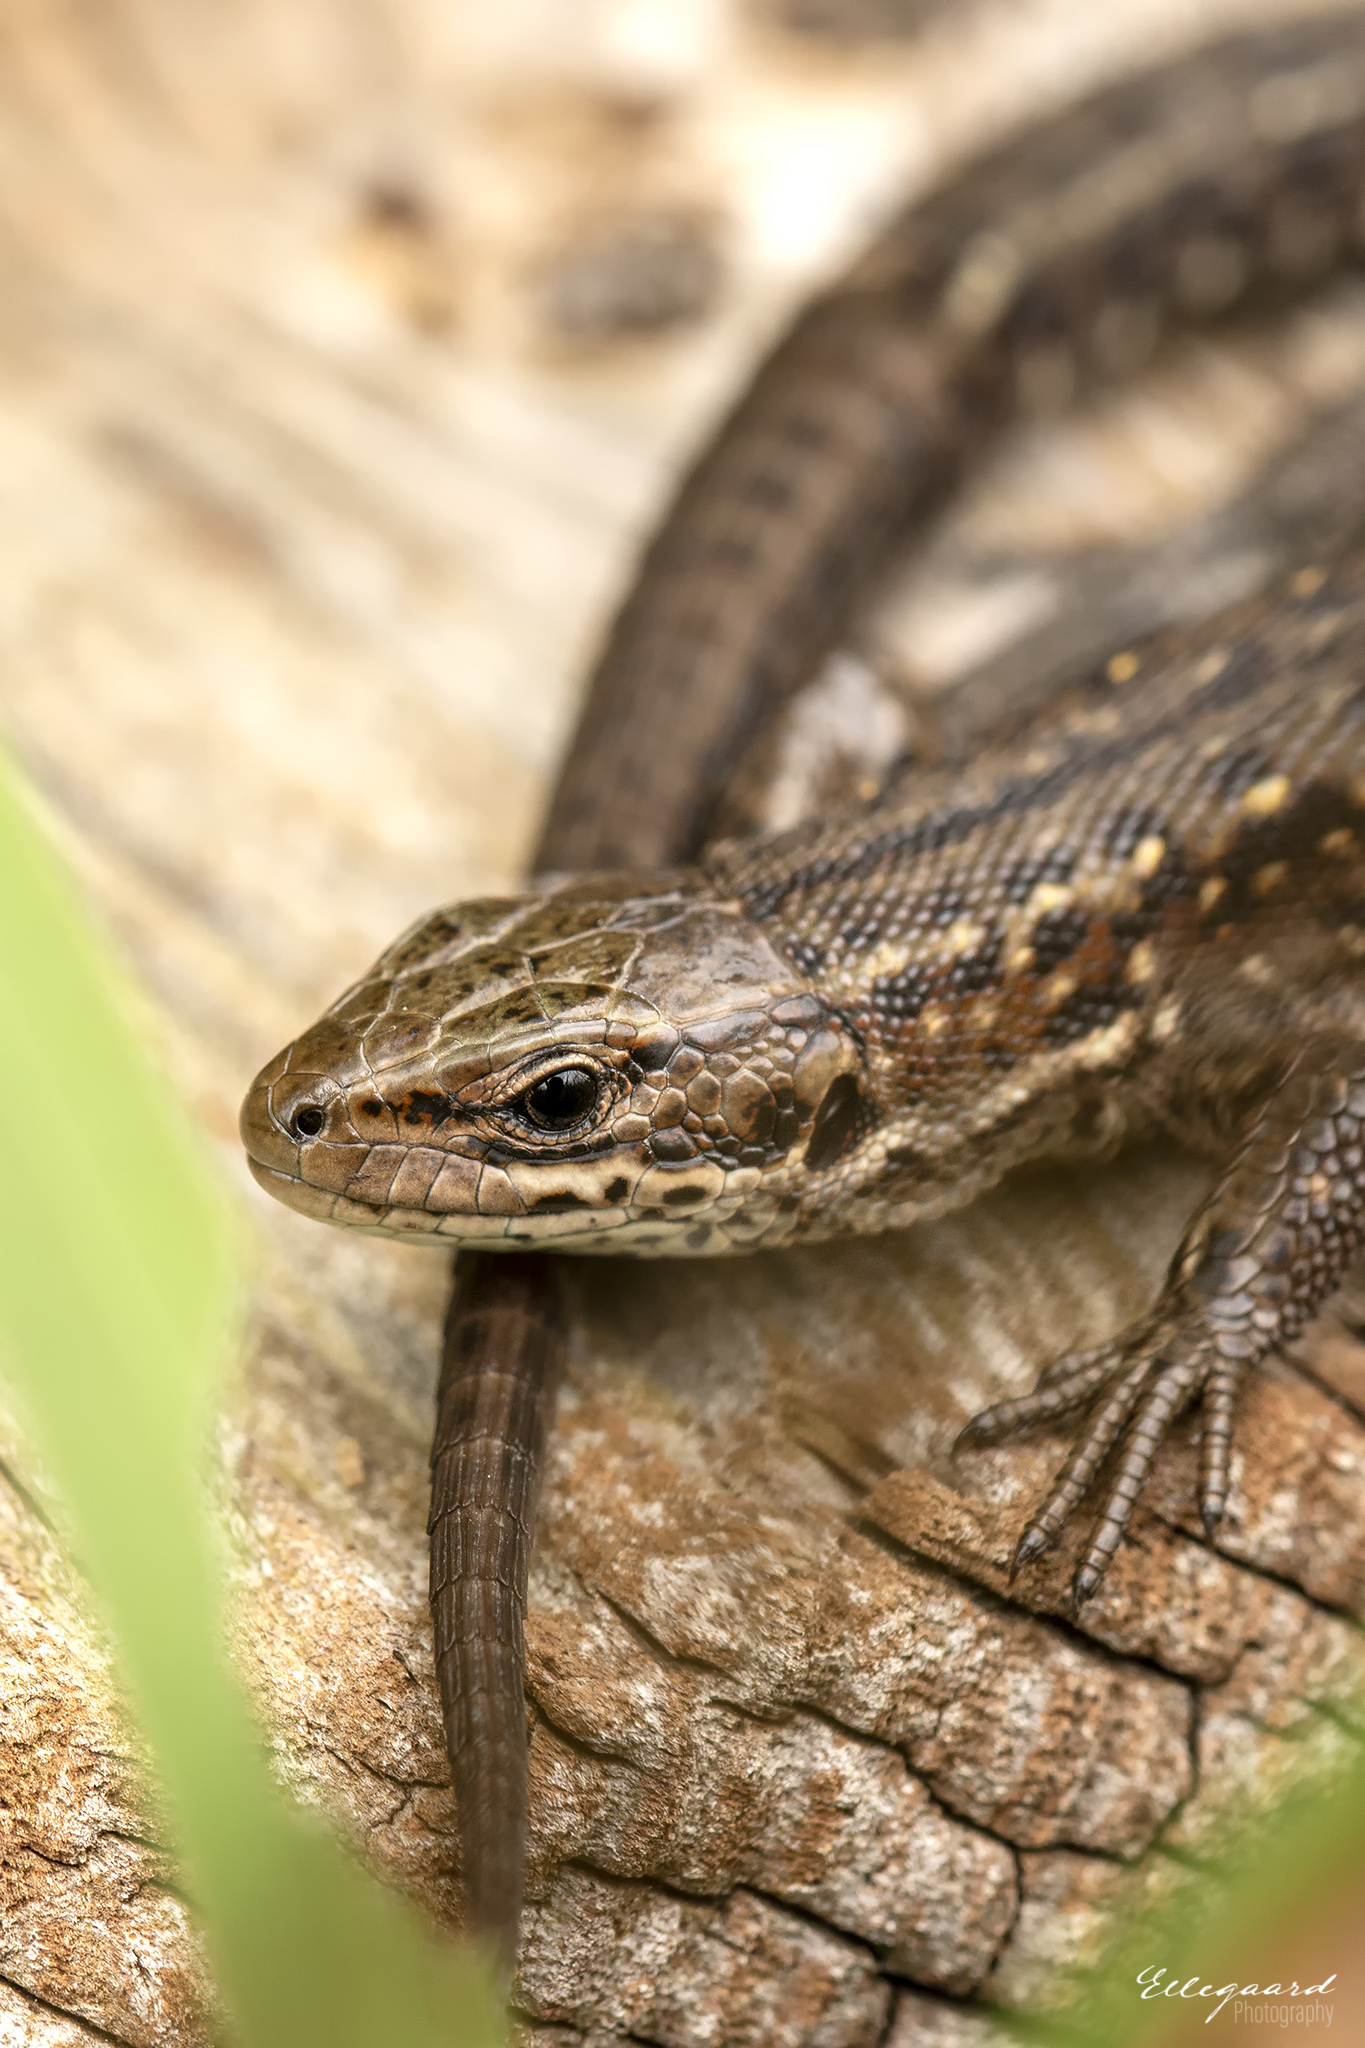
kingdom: Animalia
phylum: Chordata
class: Squamata
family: Lacertidae
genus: Zootoca
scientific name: Zootoca vivipara
